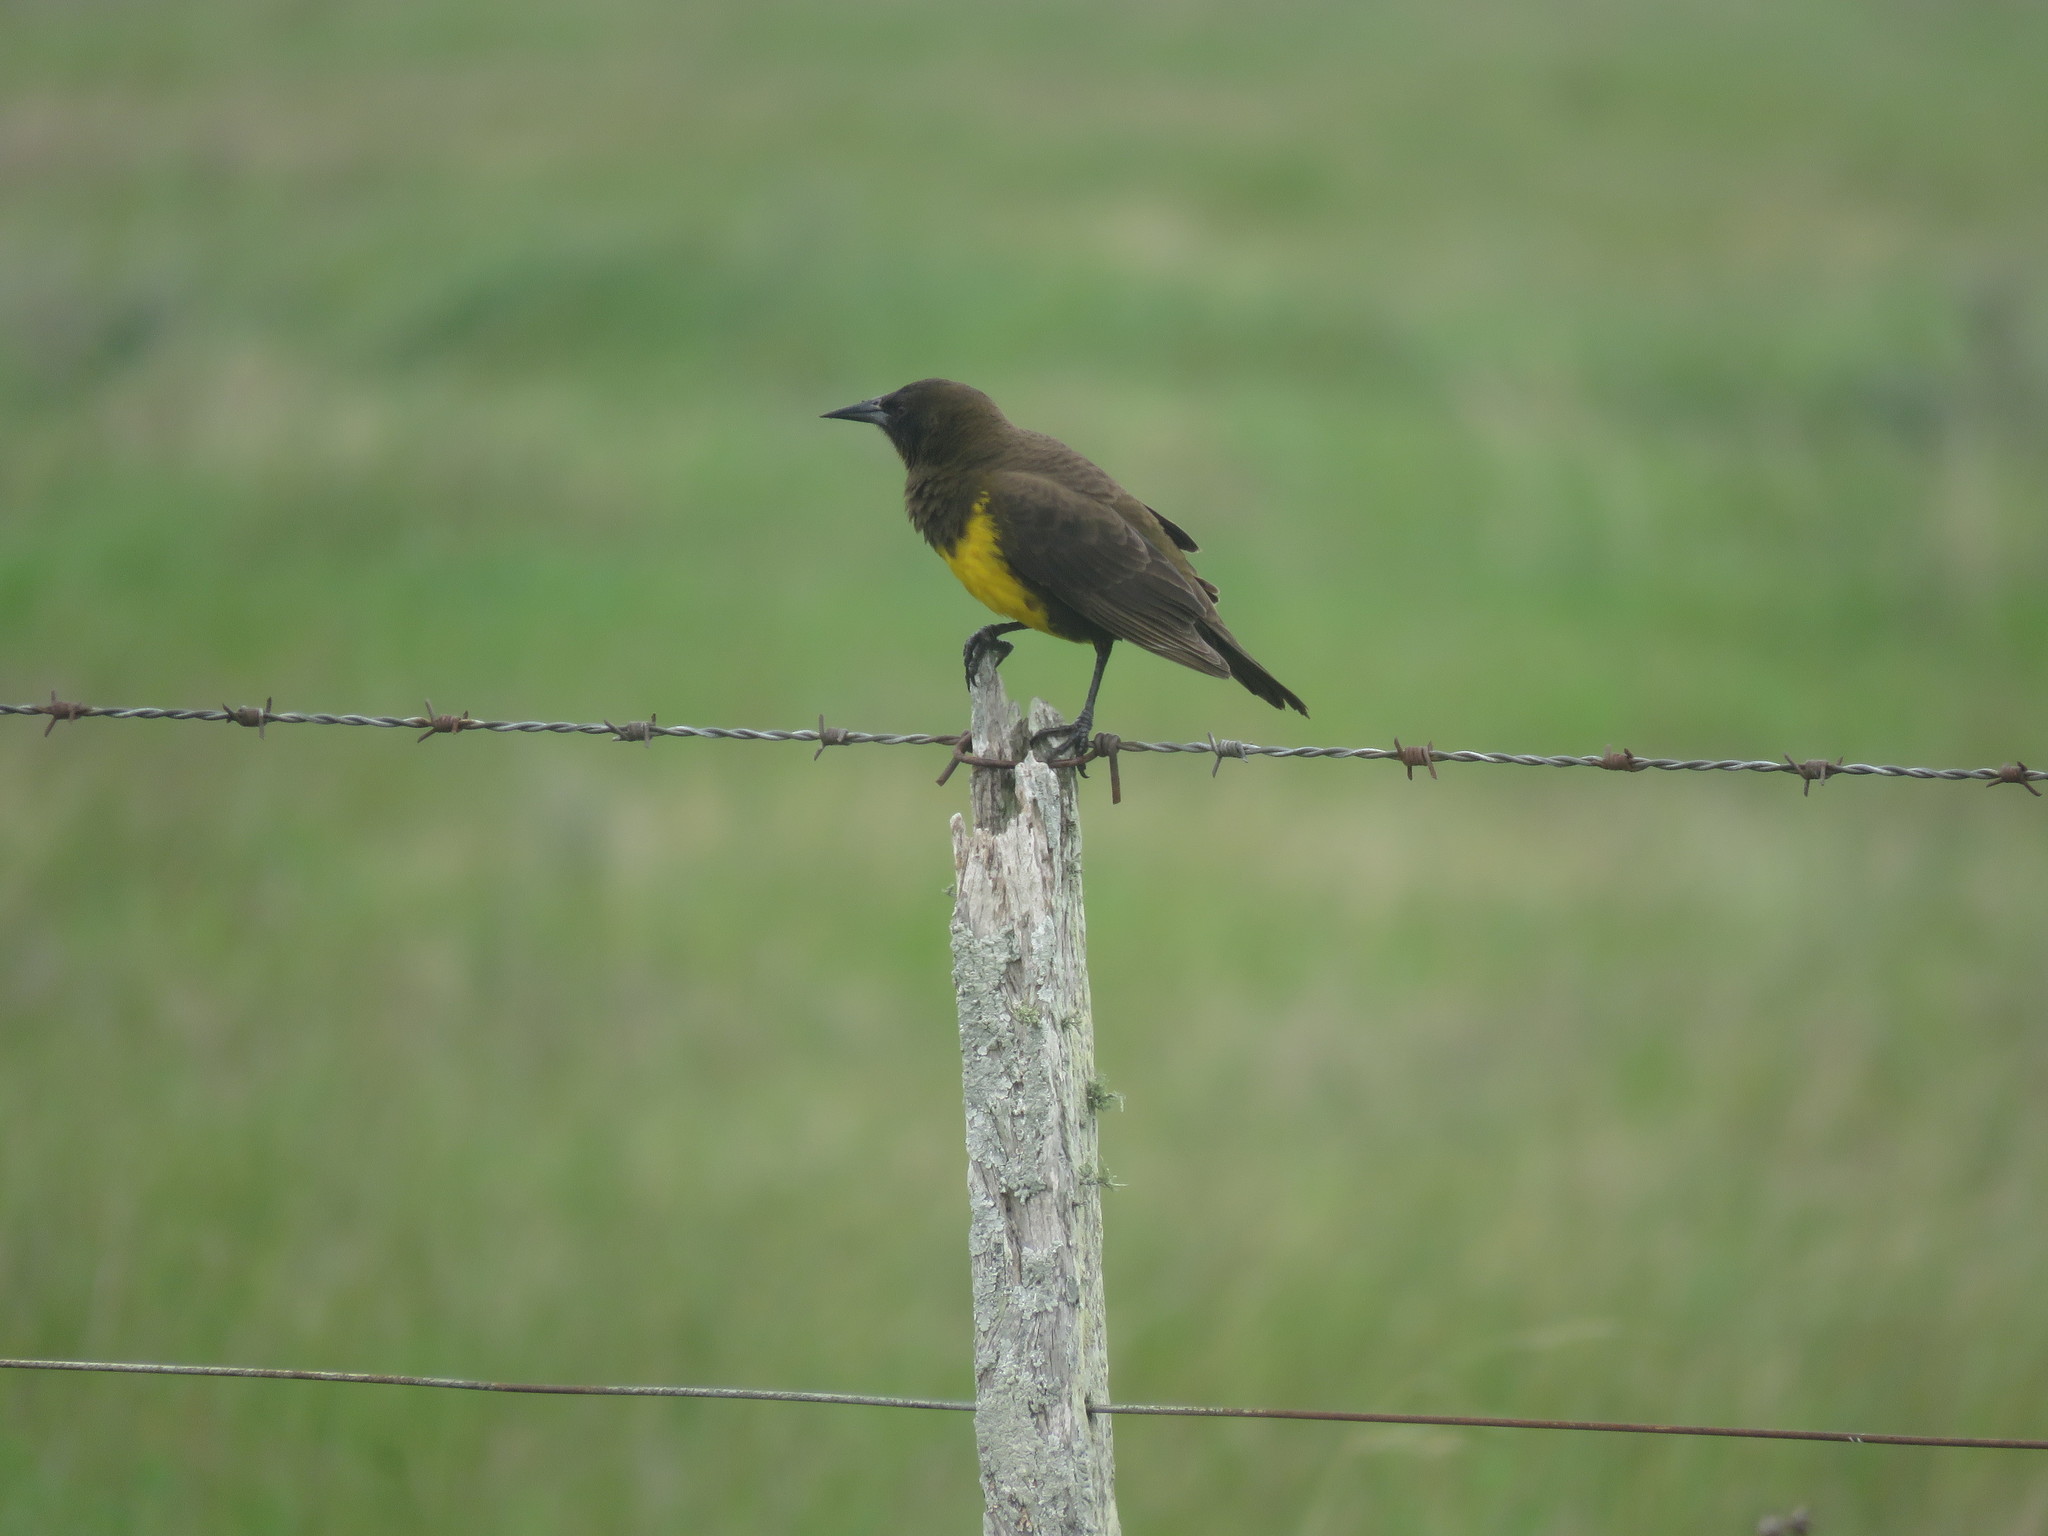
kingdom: Animalia
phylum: Chordata
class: Aves
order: Passeriformes
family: Icteridae
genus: Pseudoleistes
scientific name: Pseudoleistes virescens
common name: Brown-and-yellow marshbird
